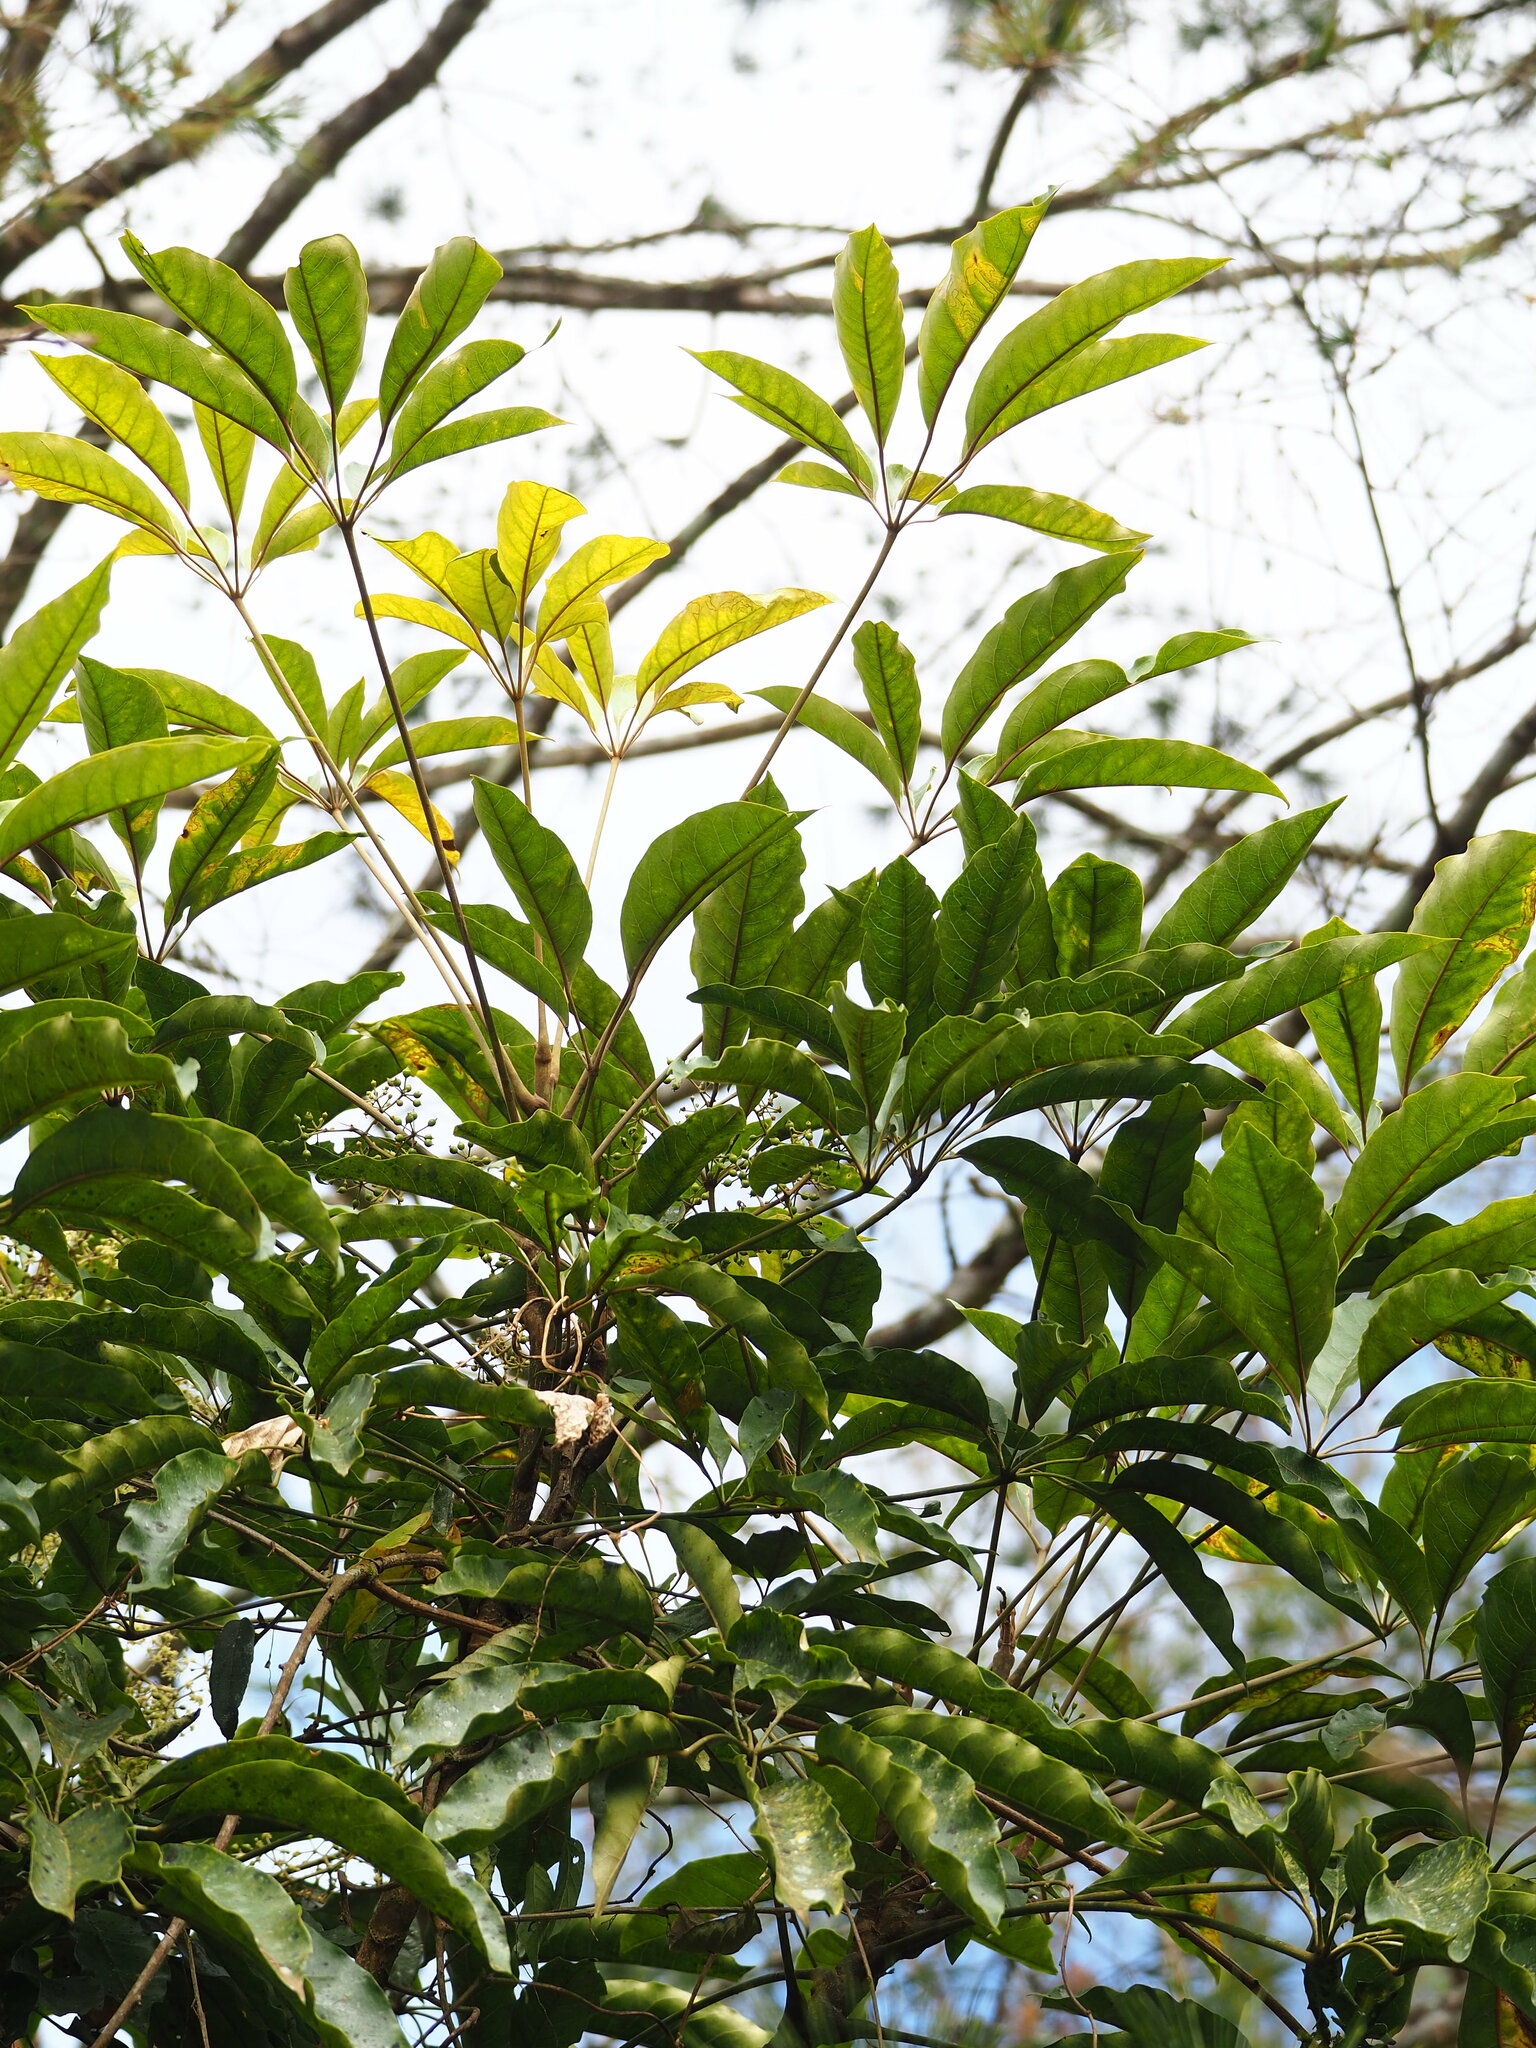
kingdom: Plantae
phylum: Tracheophyta
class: Magnoliopsida
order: Apiales
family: Araliaceae
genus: Heptapleurum
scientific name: Heptapleurum heptaphyllum
